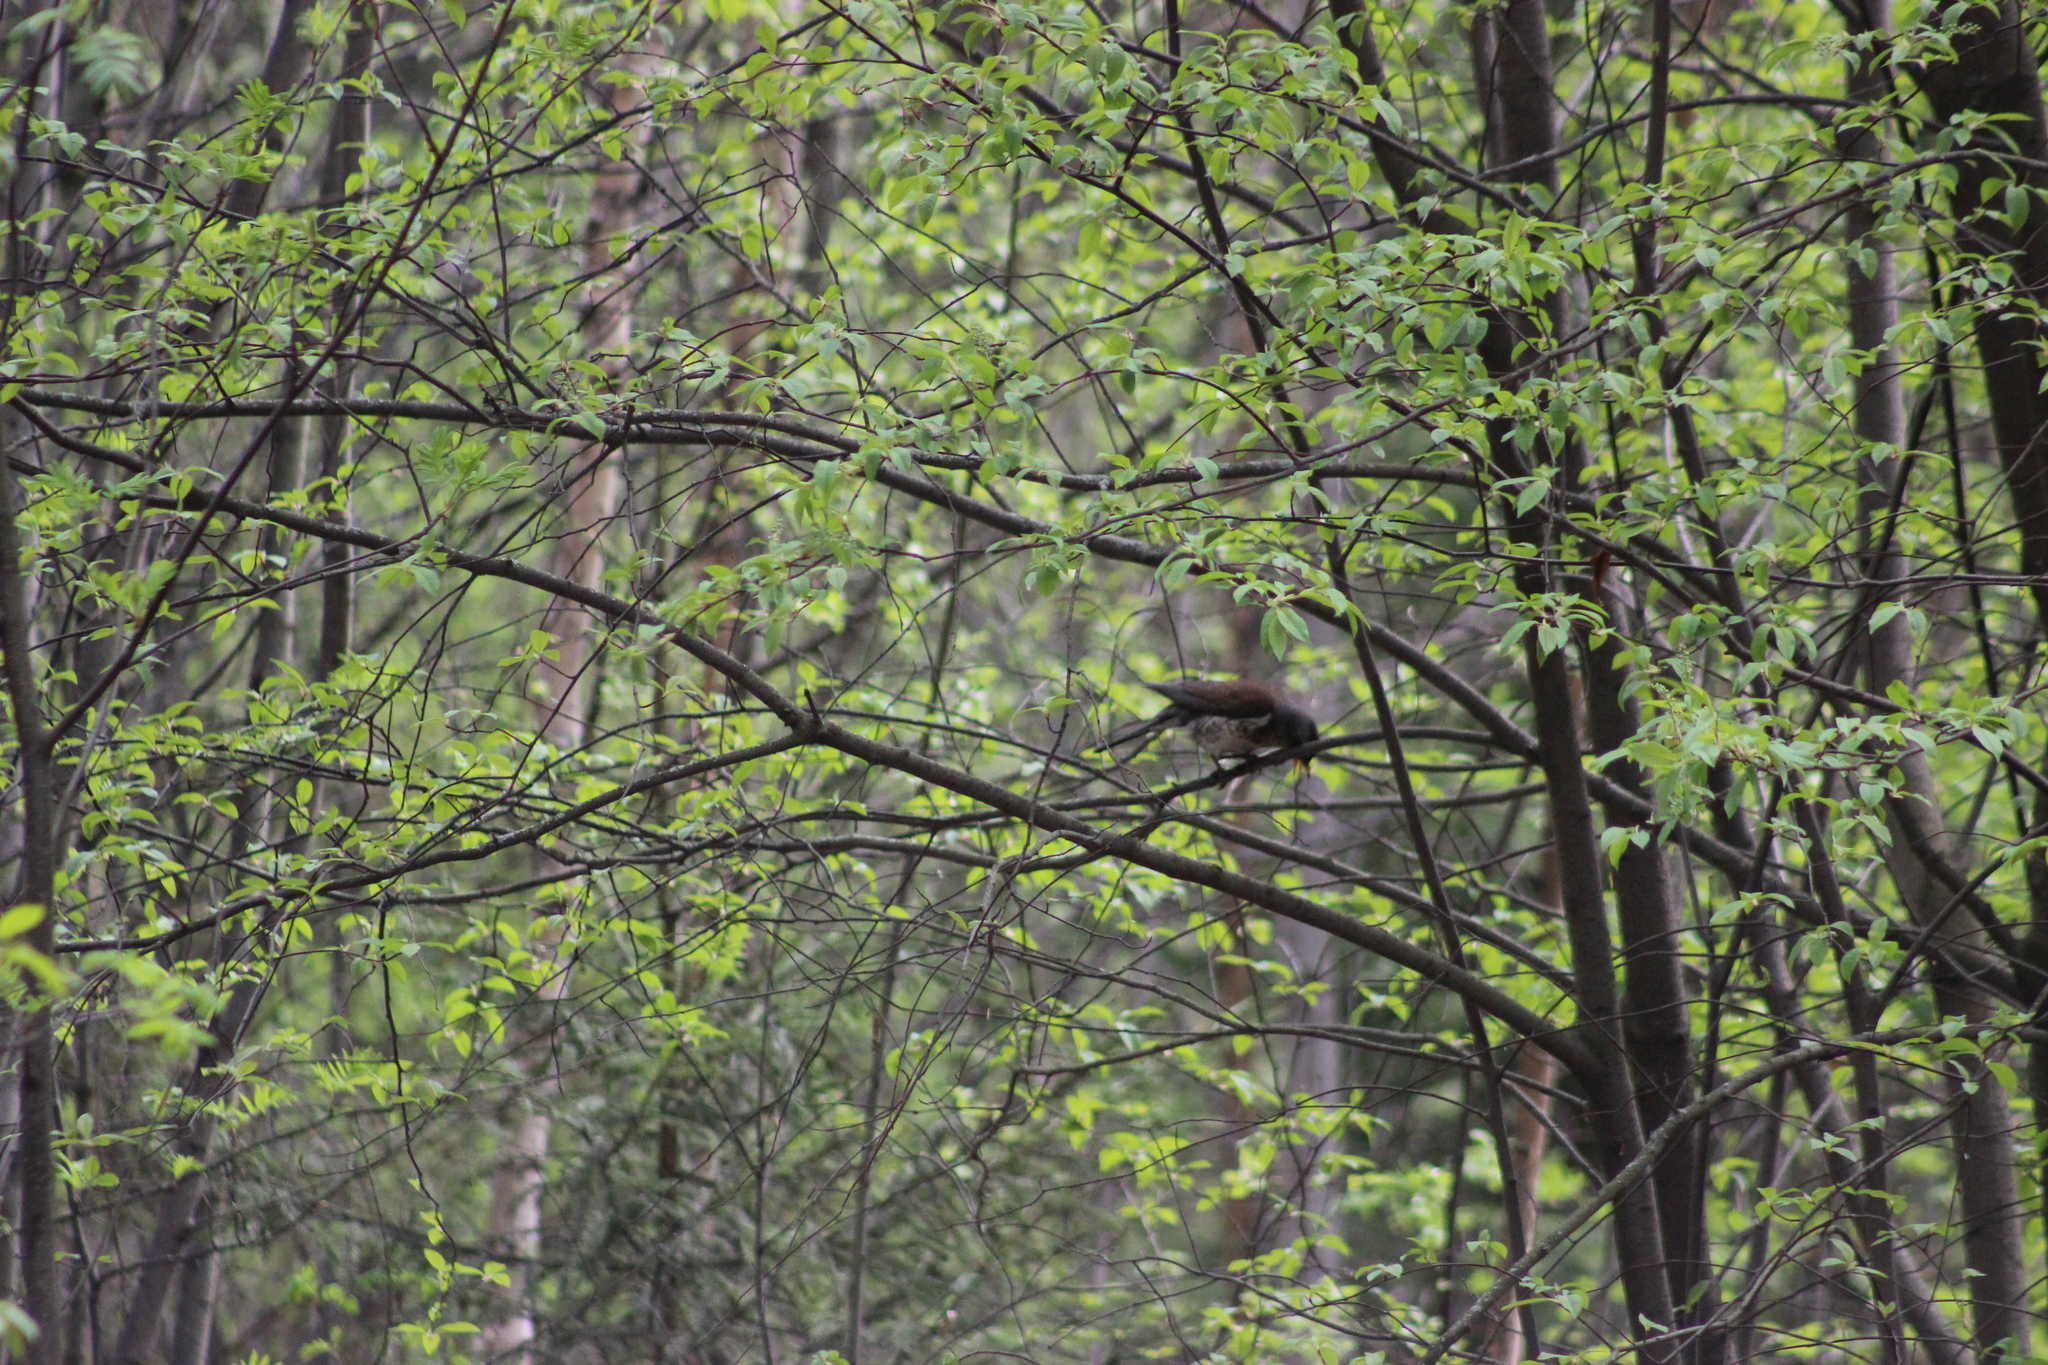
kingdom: Animalia
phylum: Chordata
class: Aves
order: Passeriformes
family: Turdidae
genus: Turdus
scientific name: Turdus pilaris
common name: Fieldfare
